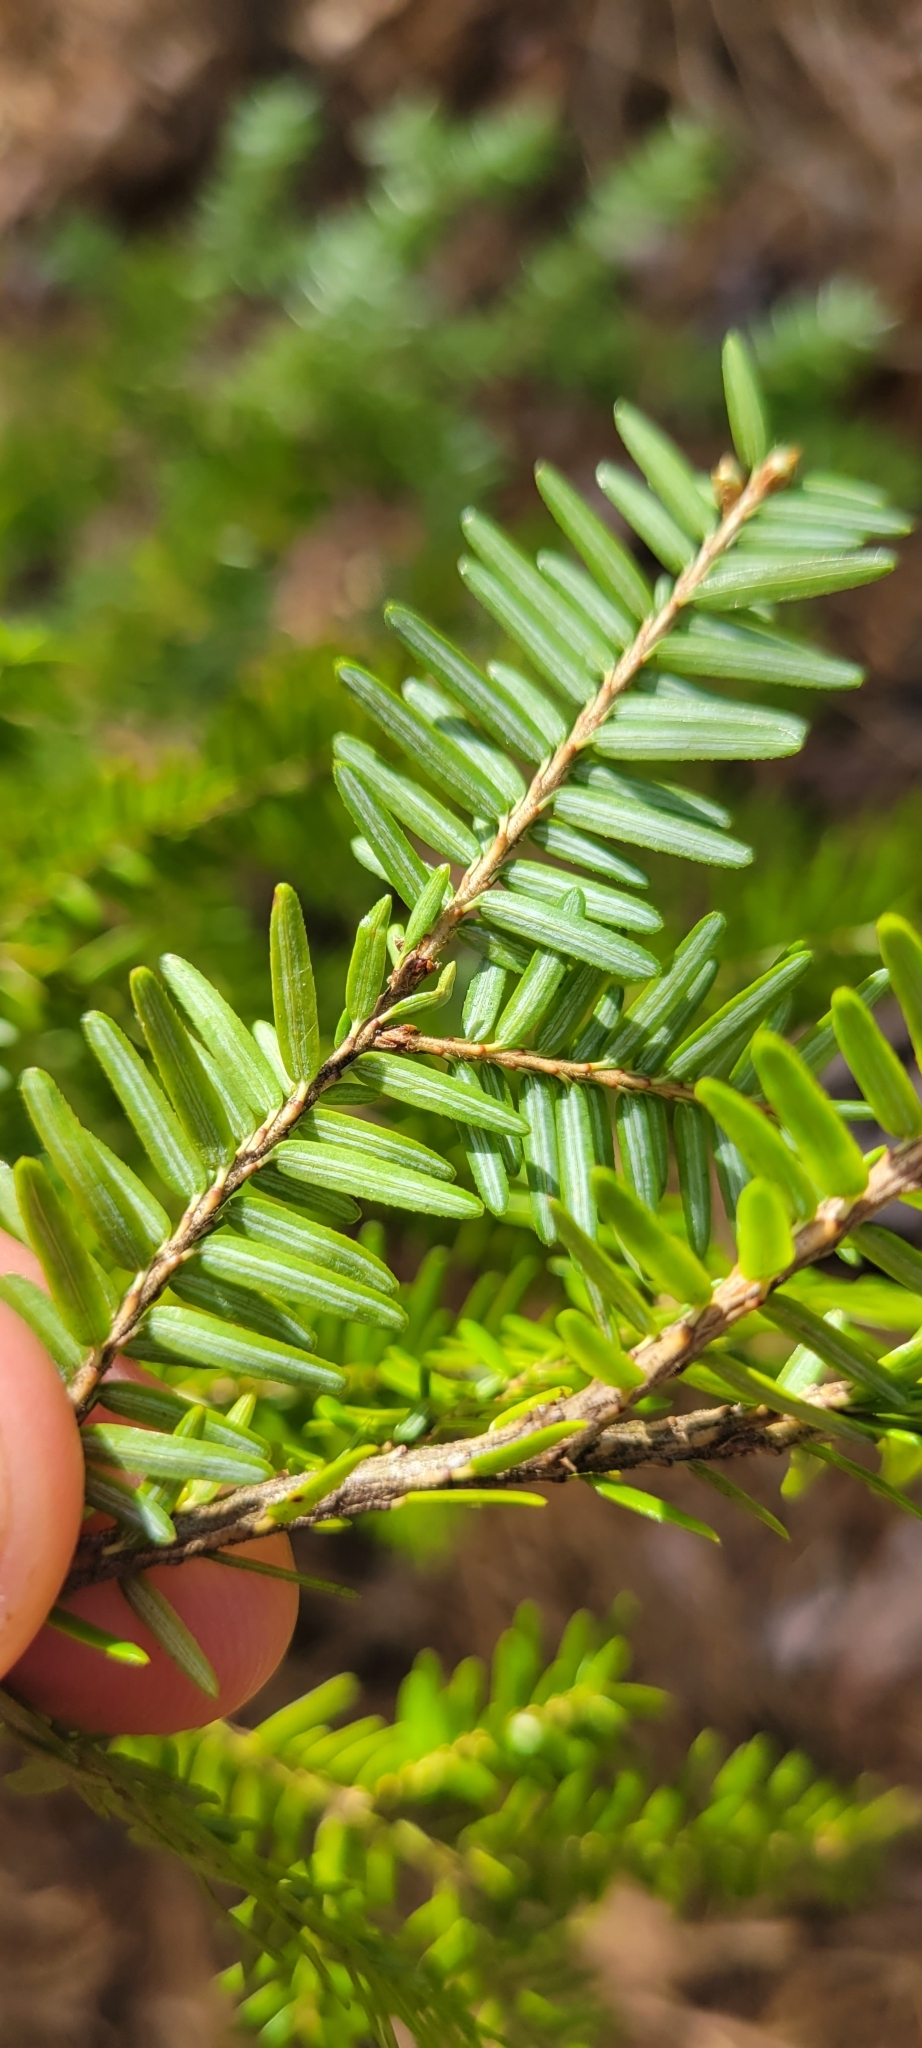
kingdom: Plantae
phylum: Tracheophyta
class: Pinopsida
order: Pinales
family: Pinaceae
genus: Tsuga
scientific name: Tsuga canadensis
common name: Eastern hemlock
